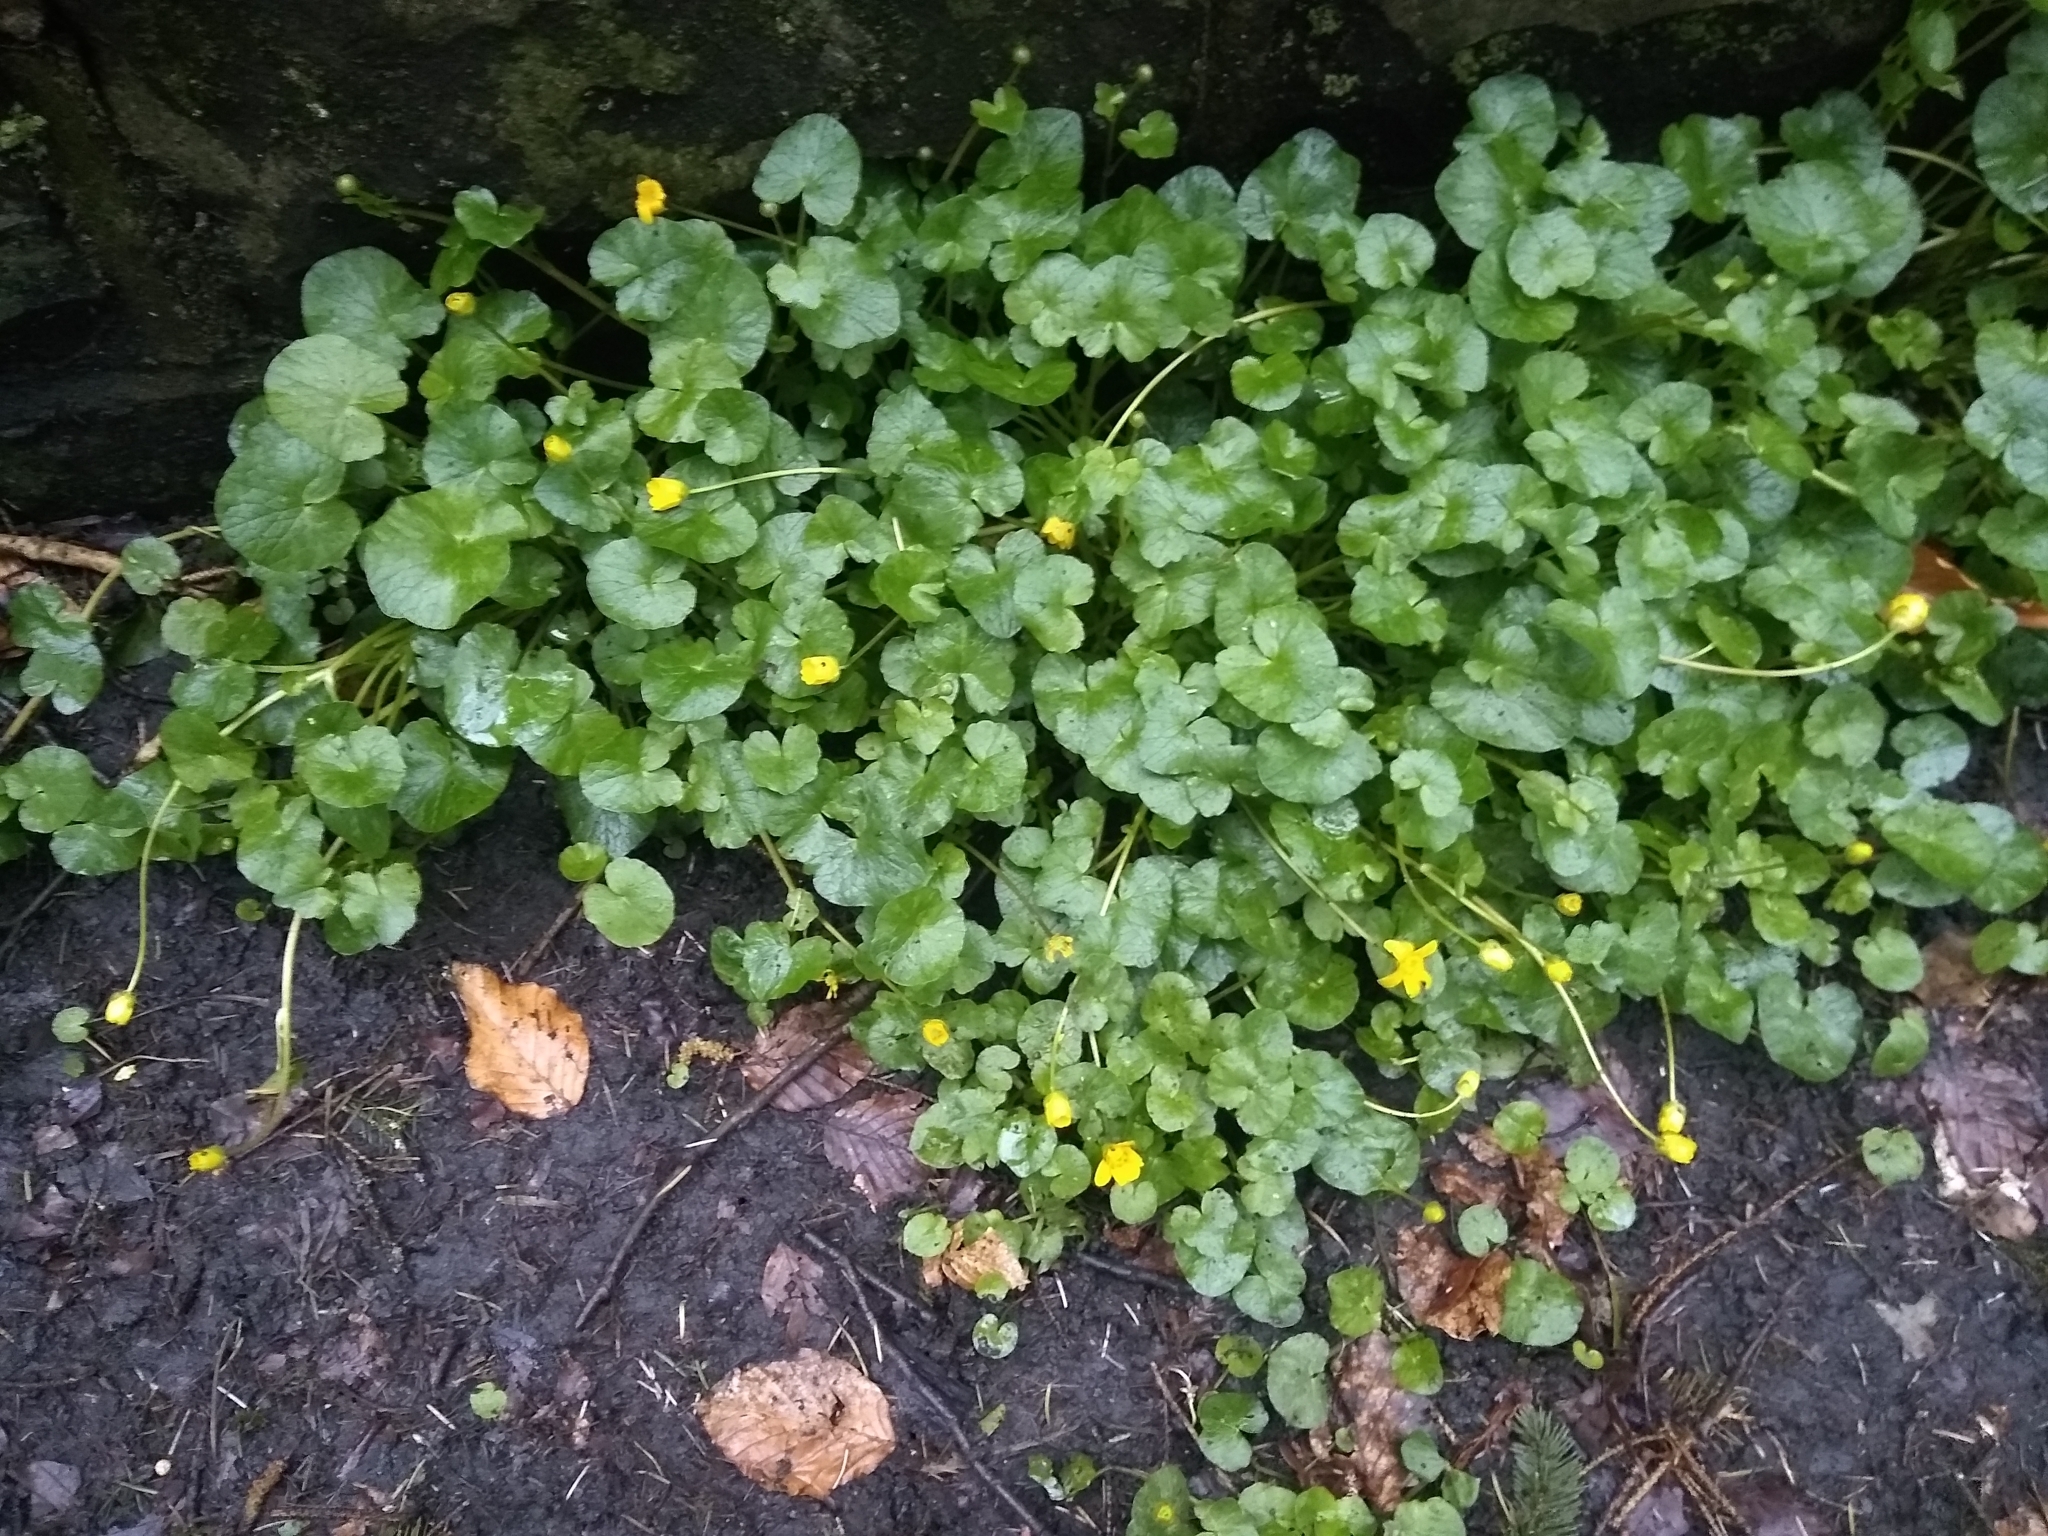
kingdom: Plantae
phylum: Tracheophyta
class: Magnoliopsida
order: Ranunculales
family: Ranunculaceae
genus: Ficaria
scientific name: Ficaria verna
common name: Lesser celandine
